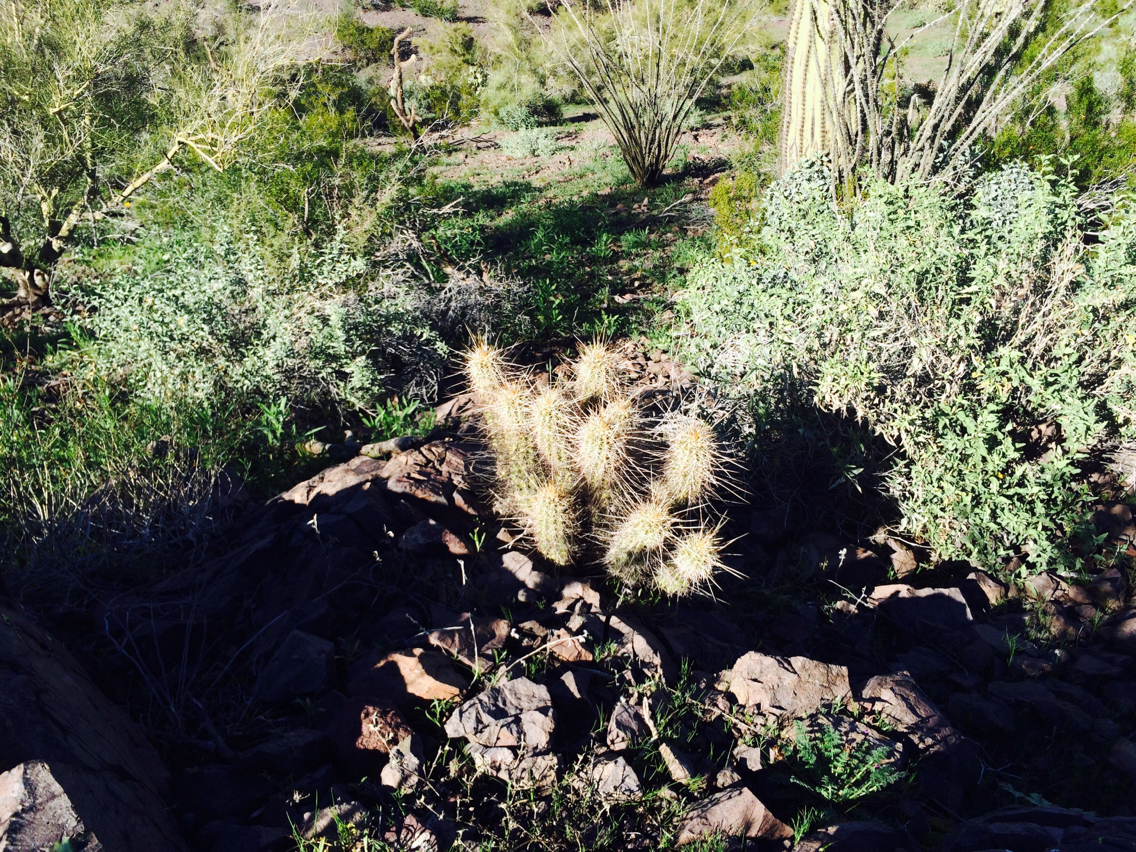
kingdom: Plantae
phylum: Tracheophyta
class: Magnoliopsida
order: Caryophyllales
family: Cactaceae
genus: Echinocereus
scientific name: Echinocereus engelmannii
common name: Engelmann's hedgehog cactus
